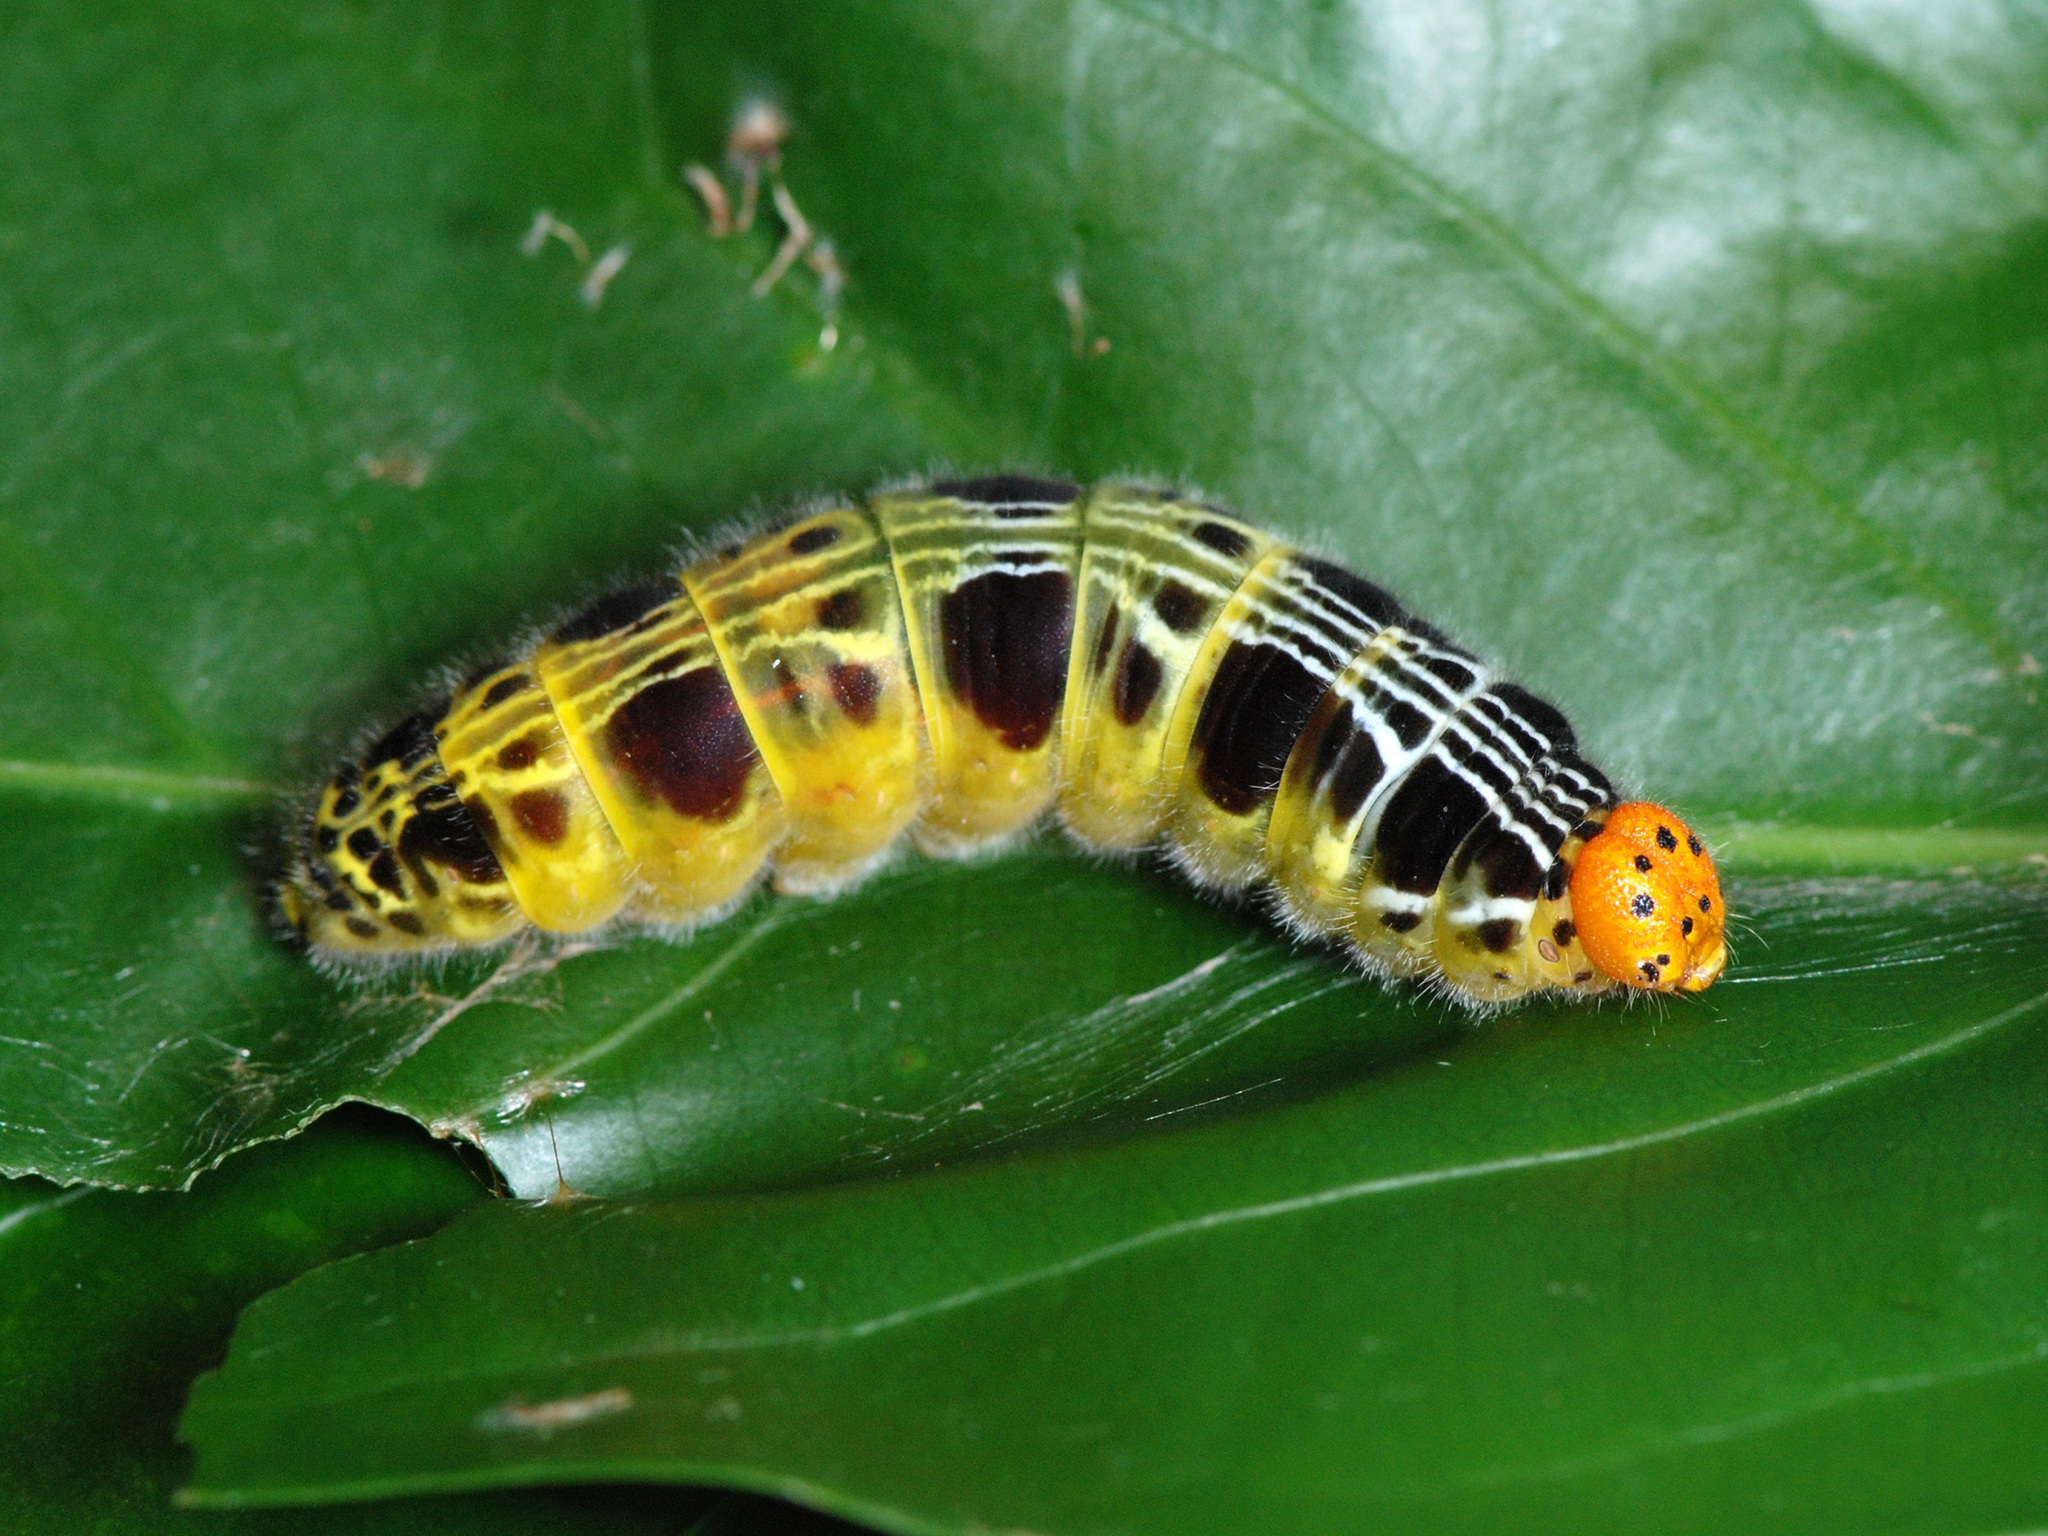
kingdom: Animalia
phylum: Arthropoda
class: Insecta
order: Lepidoptera
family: Hesperiidae
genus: Bibasis
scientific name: Bibasis harisa
